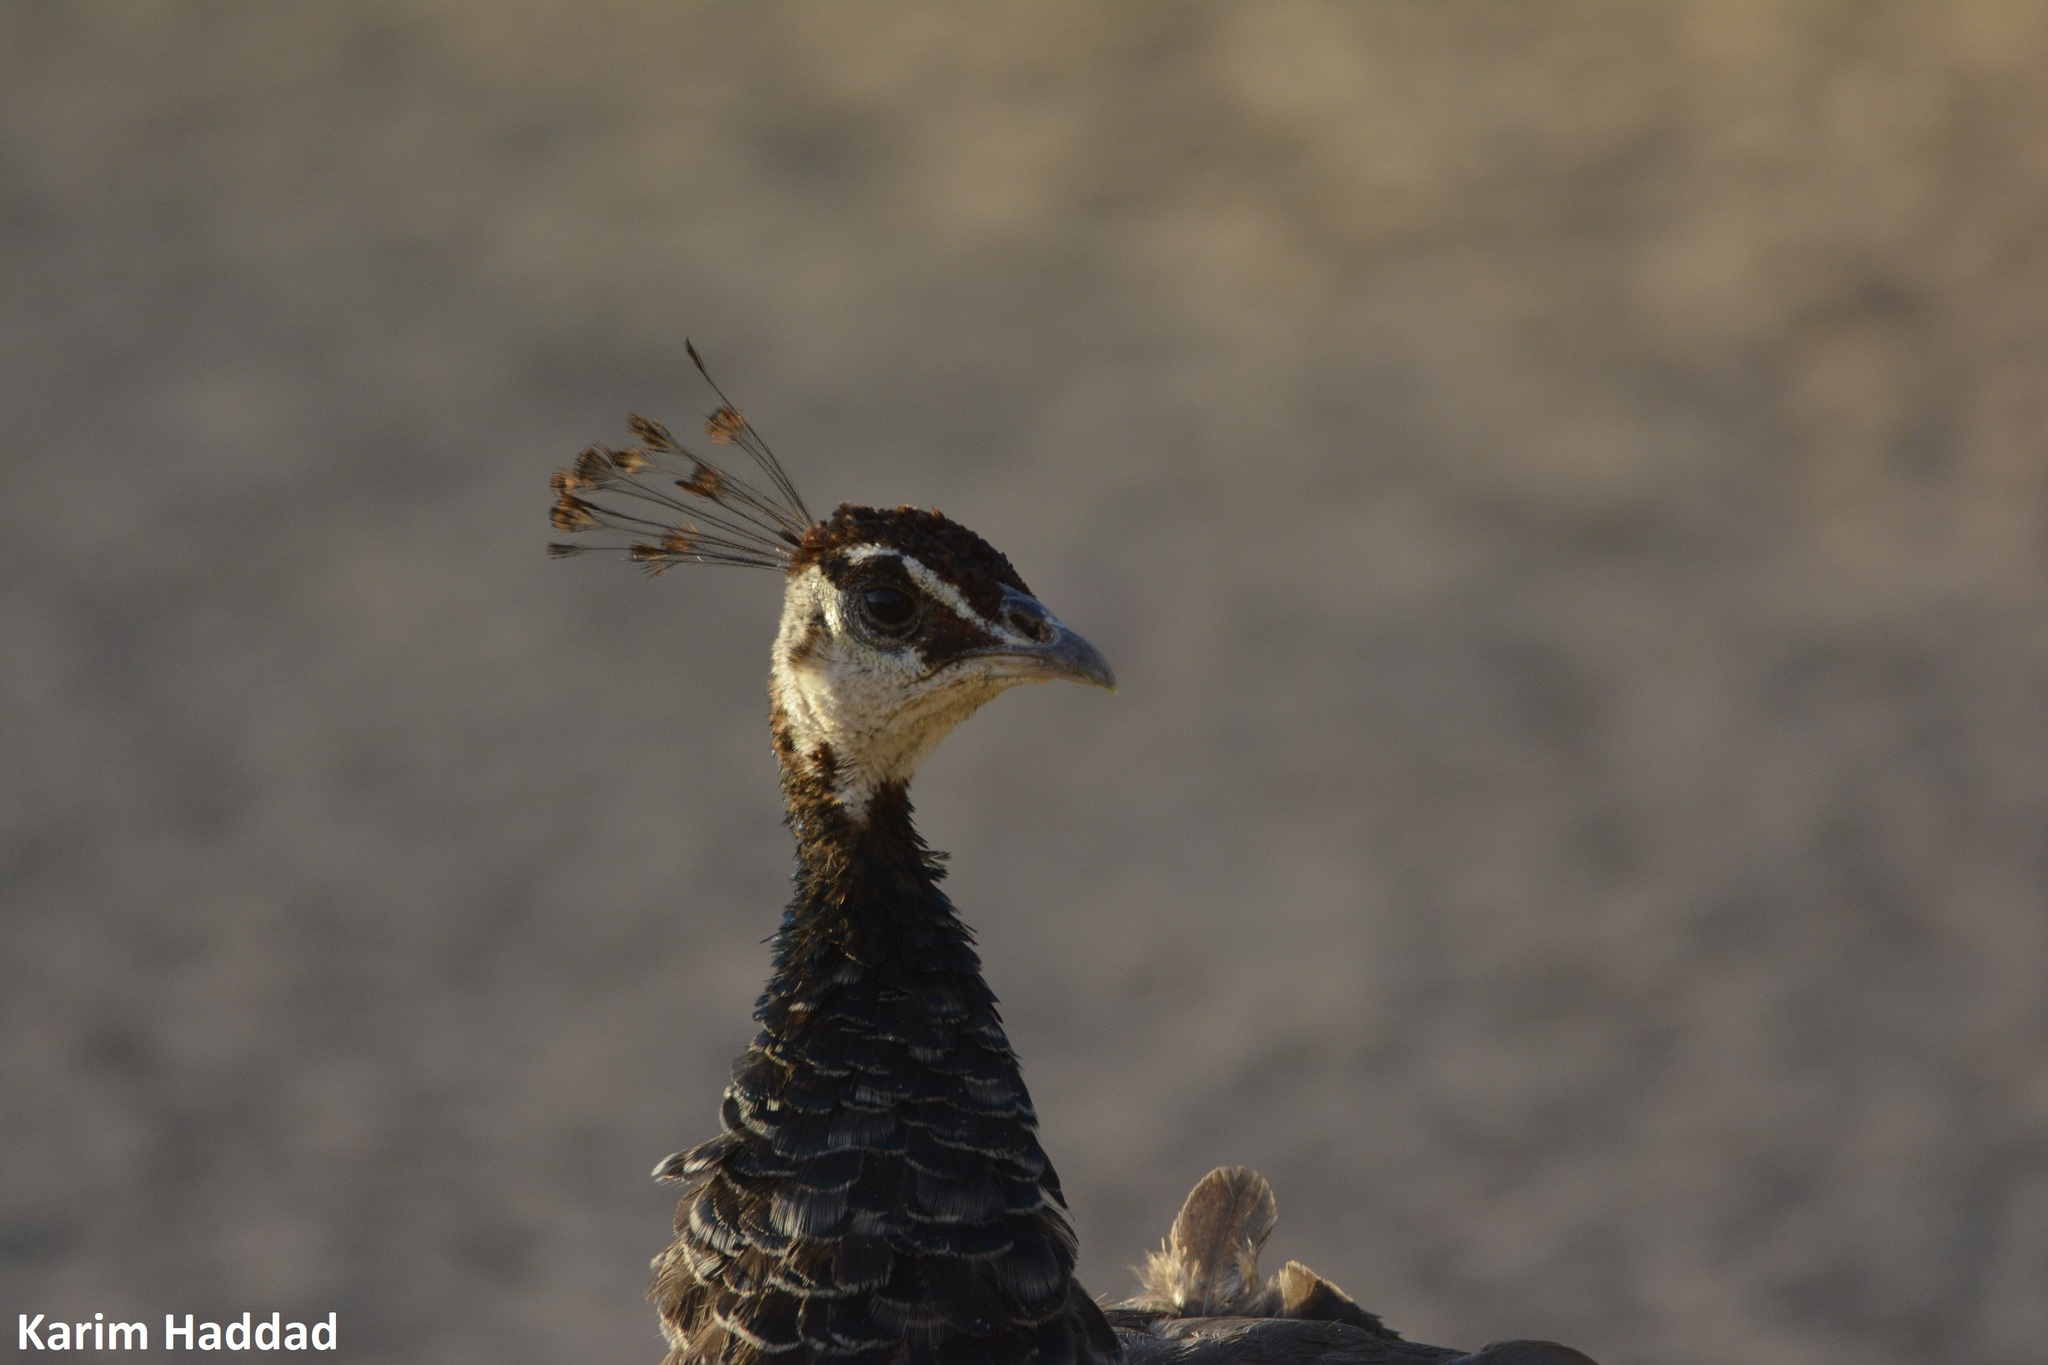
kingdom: Animalia
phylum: Chordata
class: Aves
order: Galliformes
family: Phasianidae
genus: Pavo
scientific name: Pavo cristatus
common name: Indian peafowl
